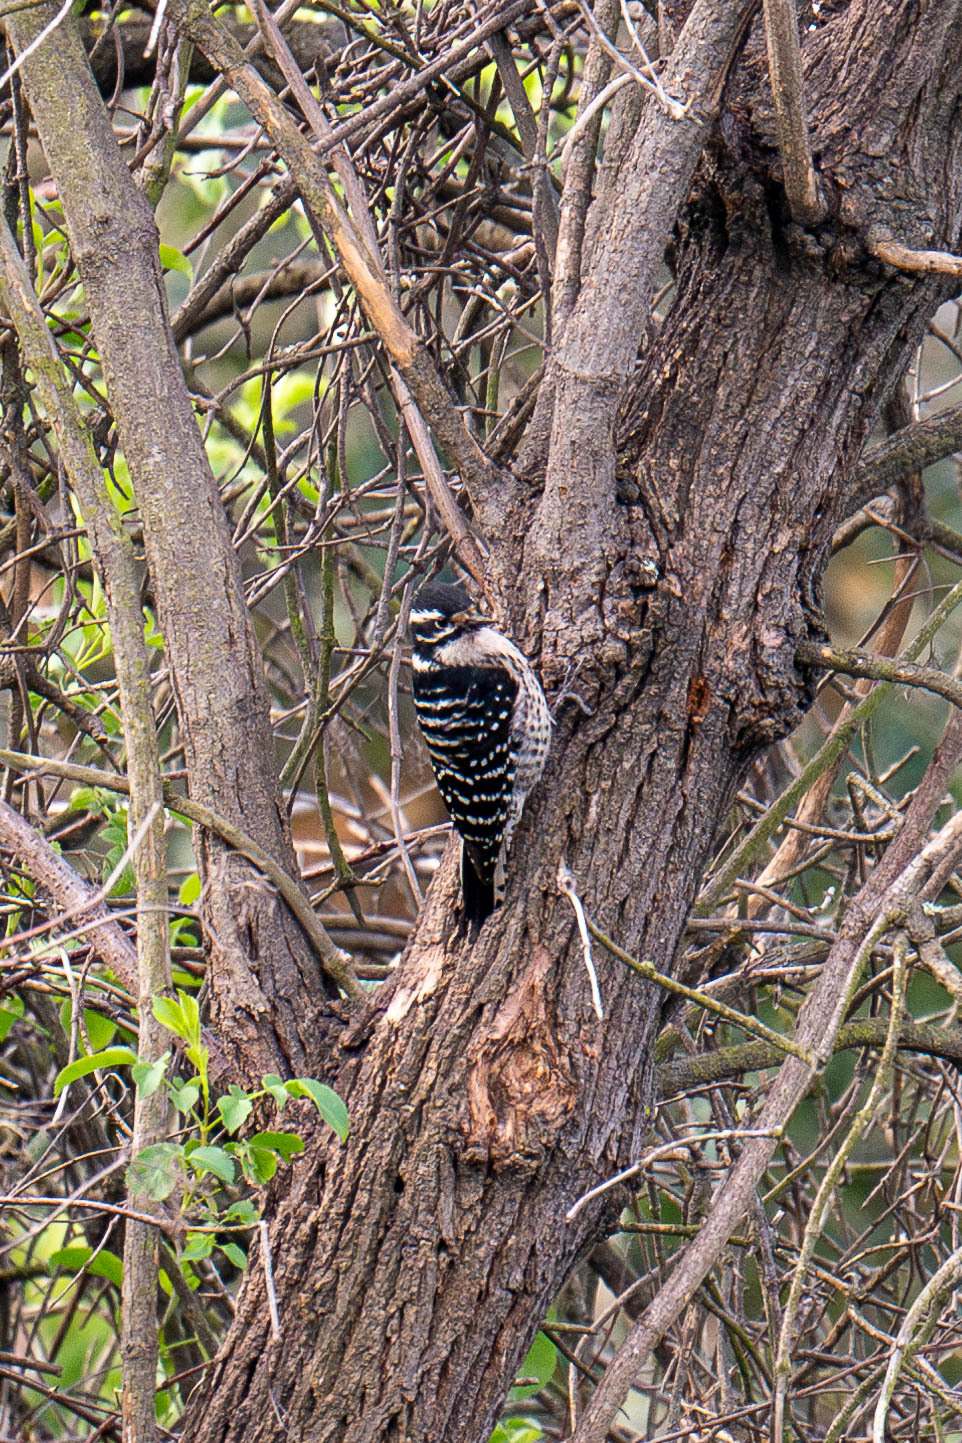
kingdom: Animalia
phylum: Chordata
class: Aves
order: Piciformes
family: Picidae
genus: Dryobates
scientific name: Dryobates nuttallii
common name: Nuttall's woodpecker
